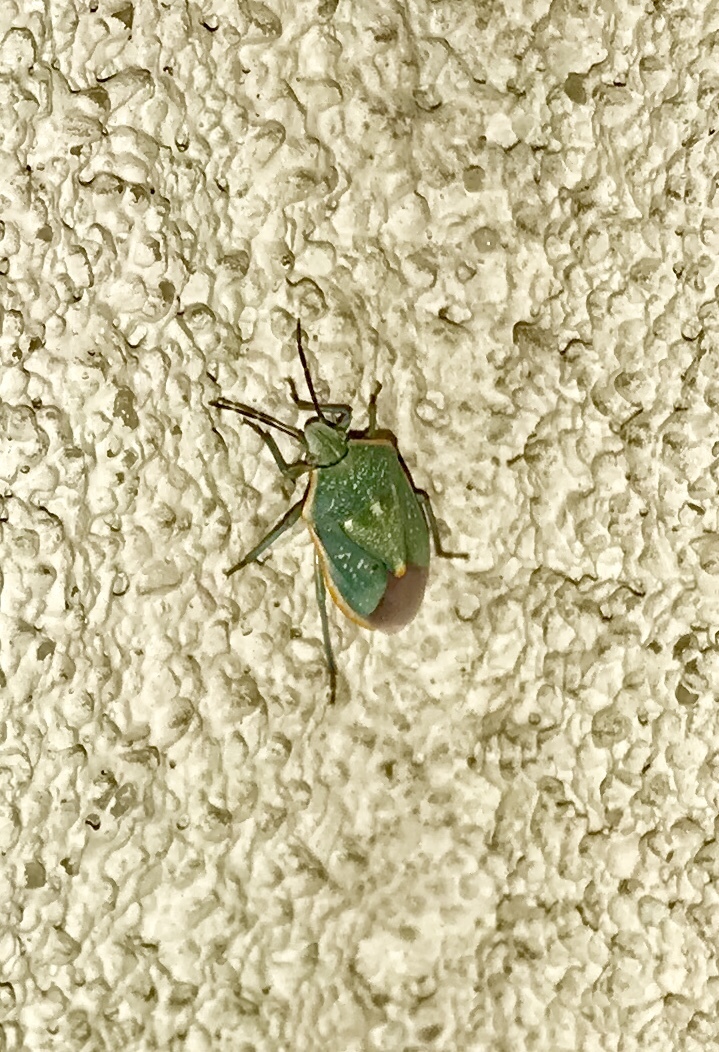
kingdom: Animalia
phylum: Arthropoda
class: Insecta
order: Hemiptera
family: Pentatomidae
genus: Chlorochroa
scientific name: Chlorochroa sayi
